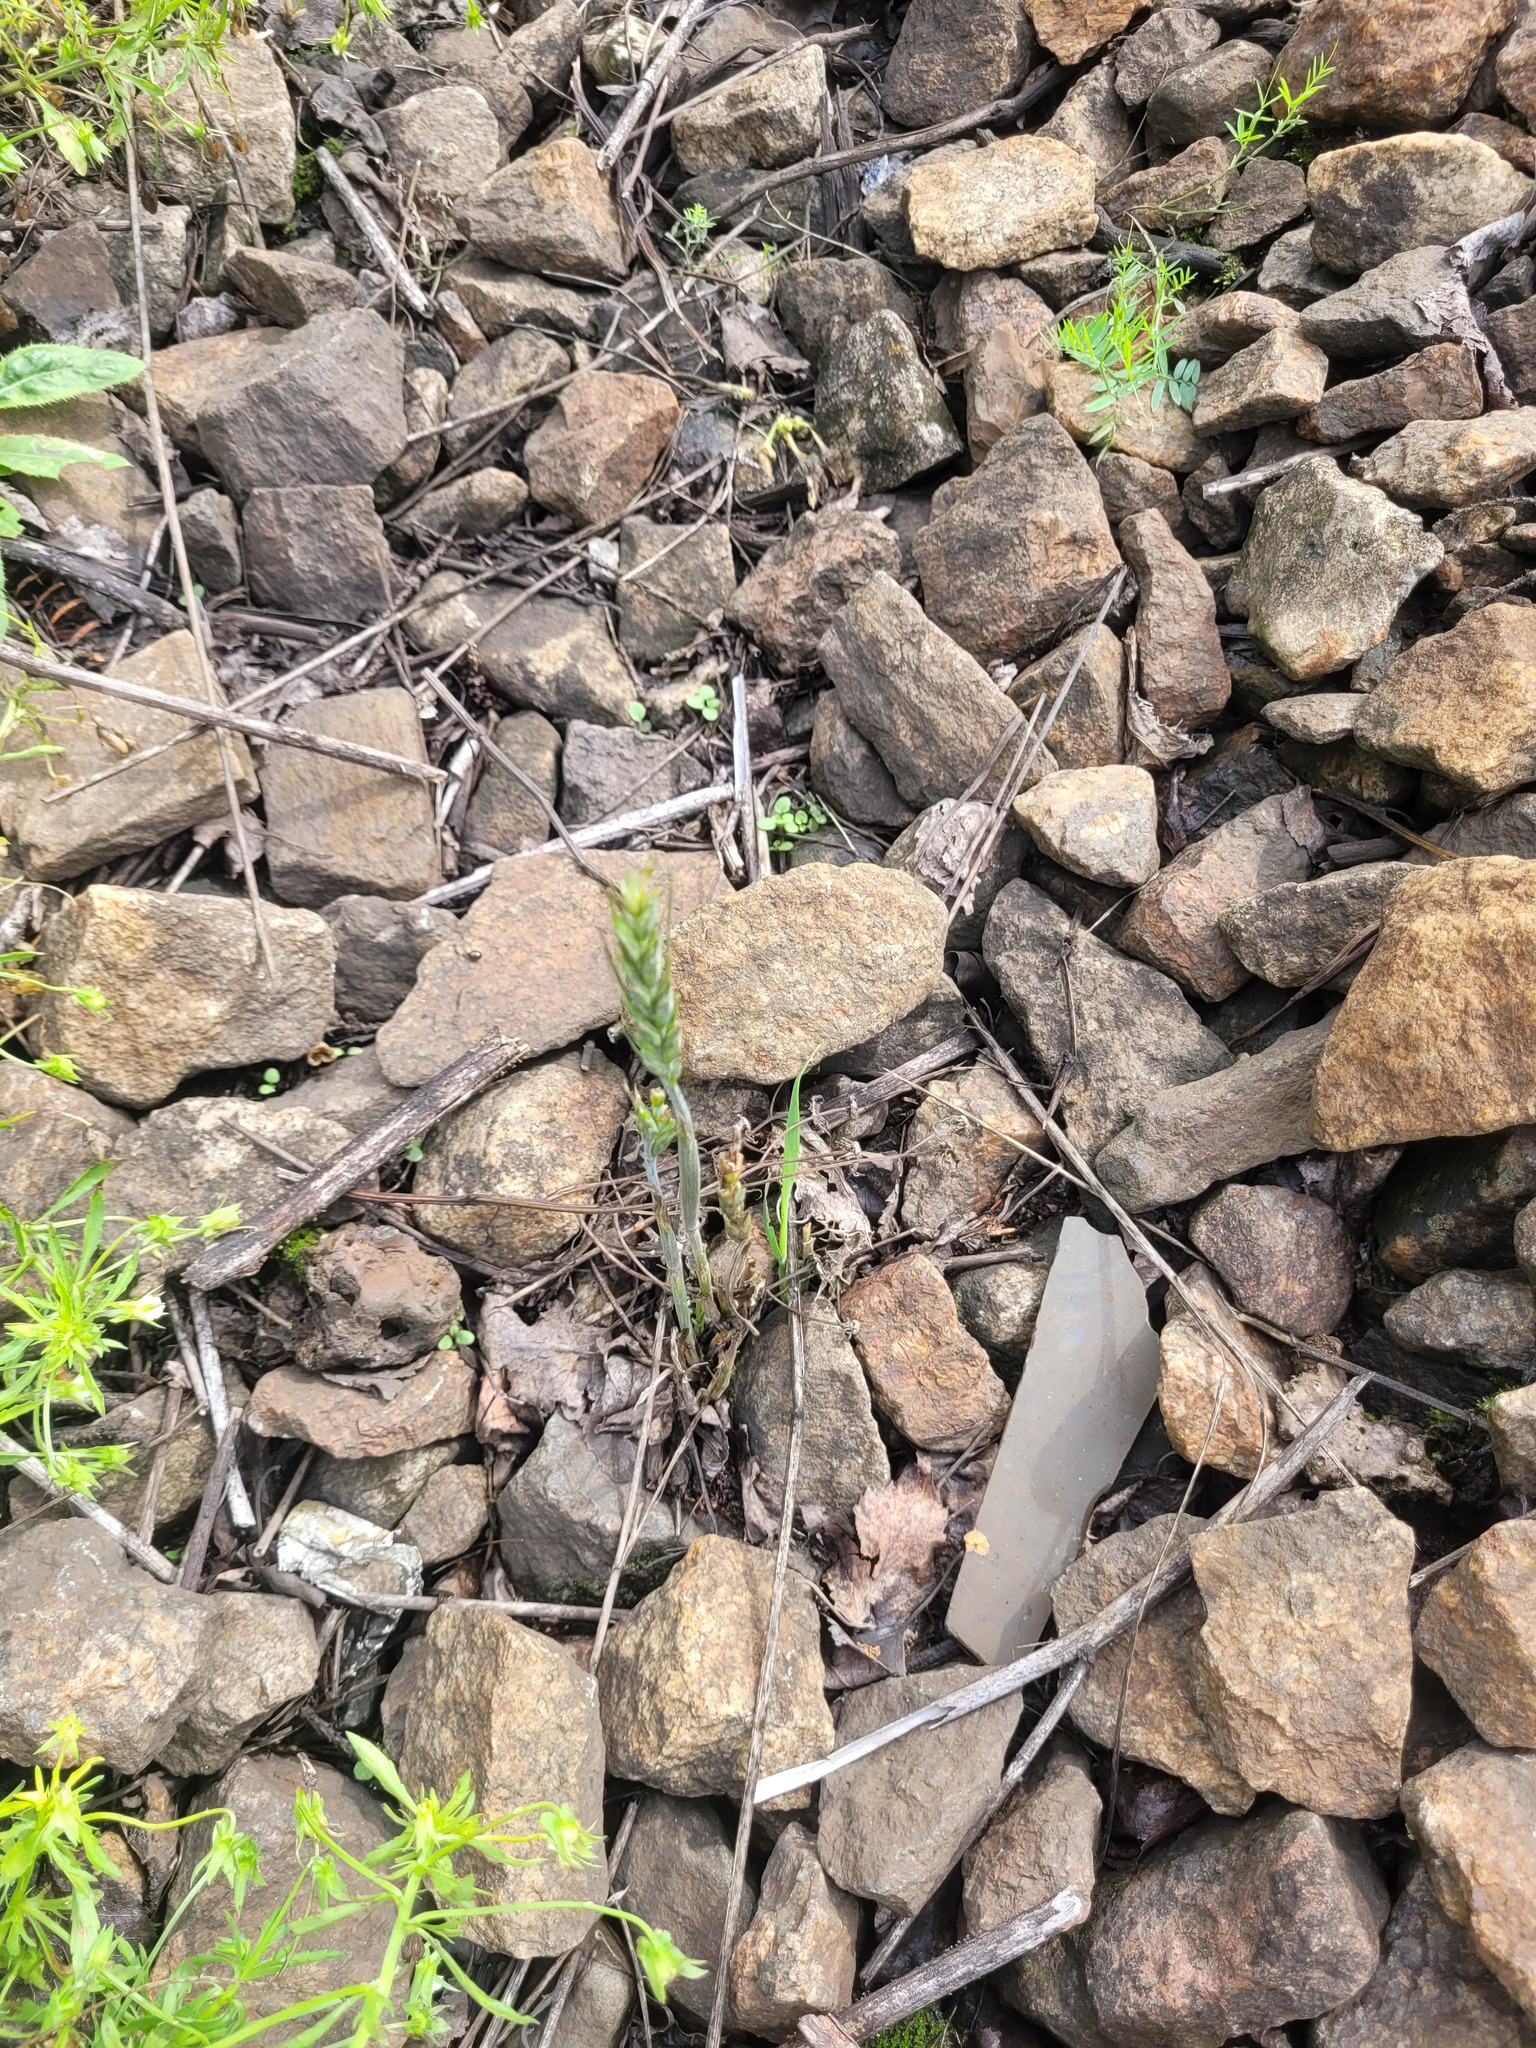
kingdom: Plantae
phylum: Tracheophyta
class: Liliopsida
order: Poales
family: Poaceae
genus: Triticum
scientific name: Triticum aestivum
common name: Common wheat
